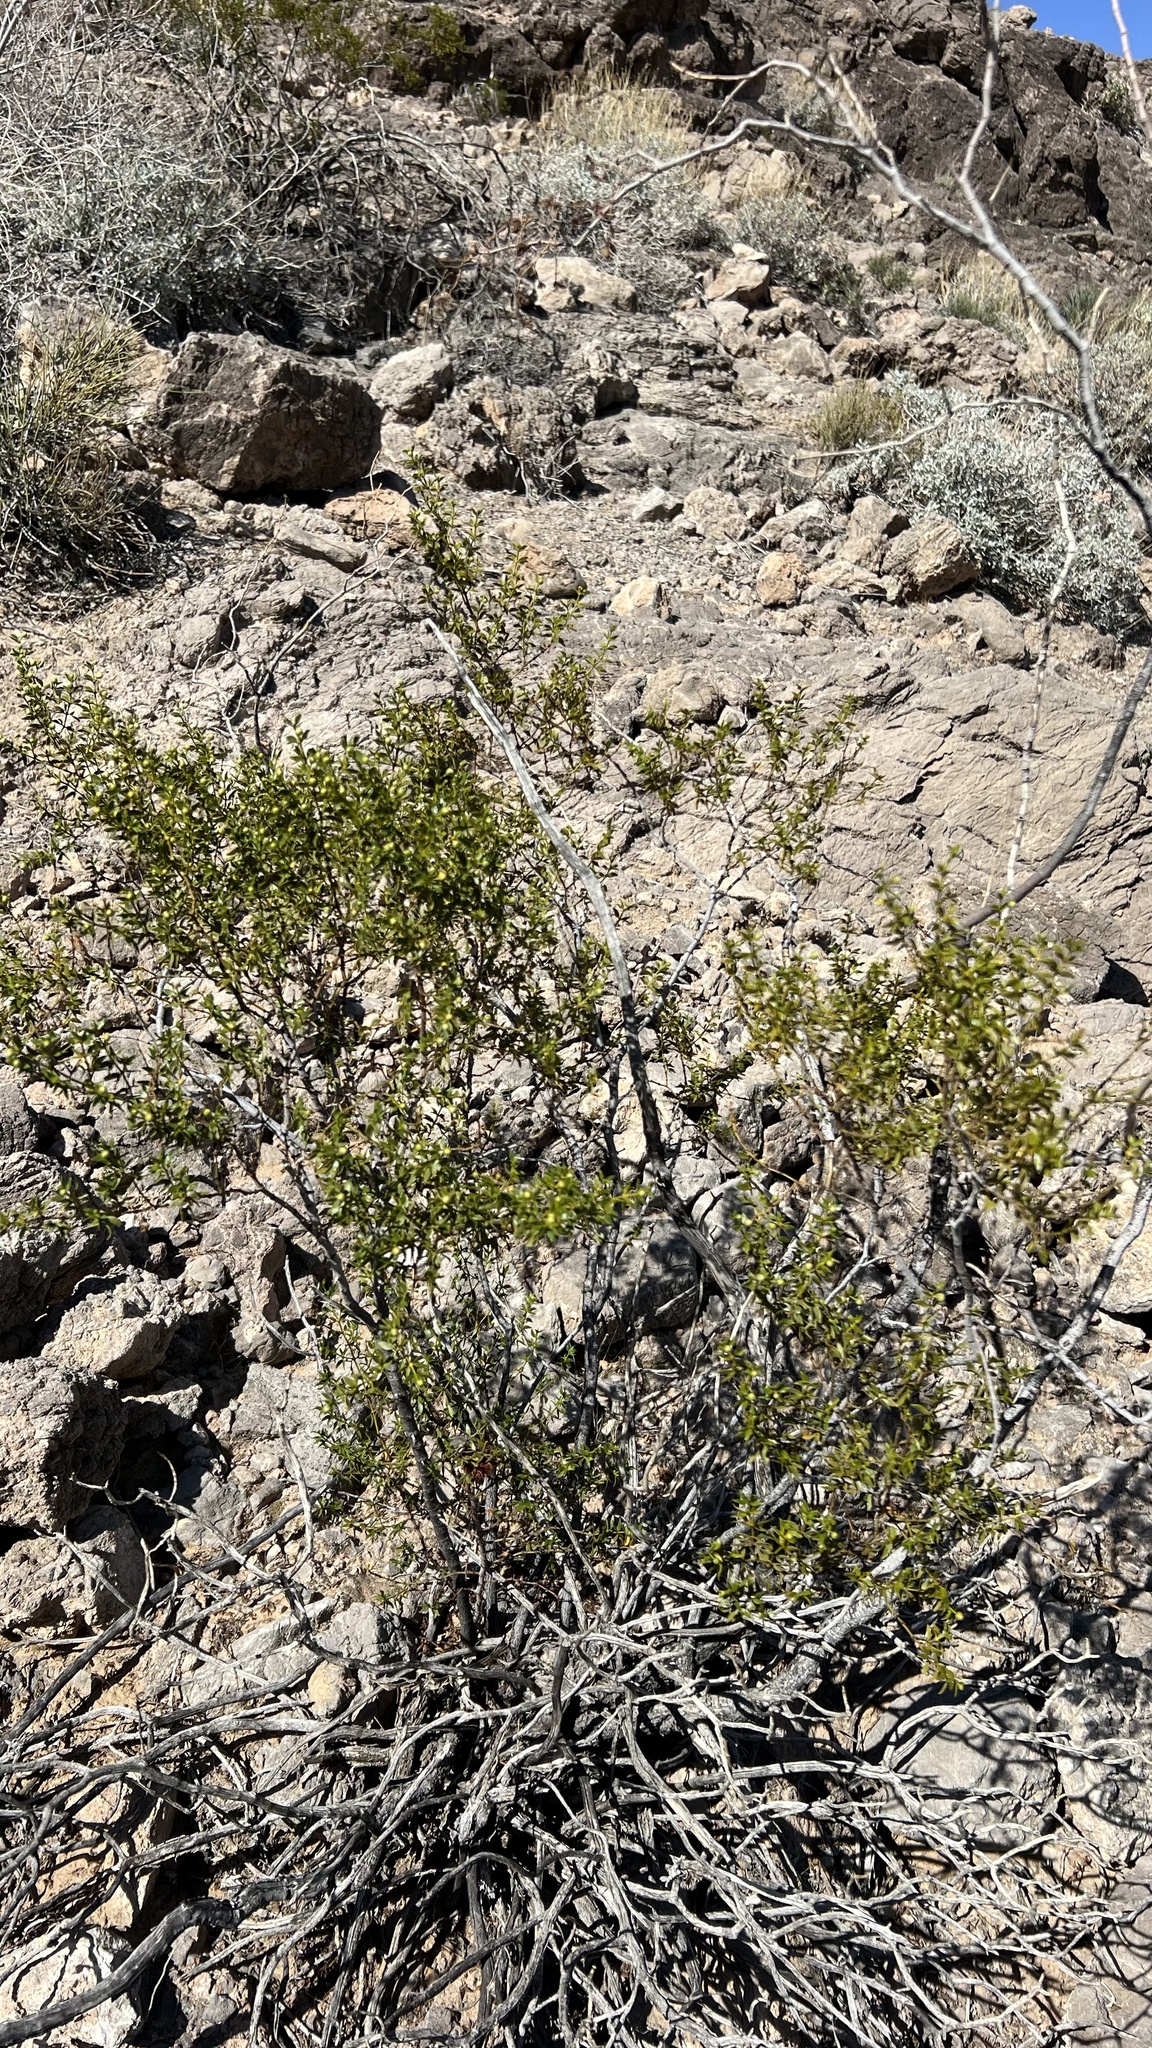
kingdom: Plantae
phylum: Tracheophyta
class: Magnoliopsida
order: Zygophyllales
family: Zygophyllaceae
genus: Larrea
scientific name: Larrea tridentata
